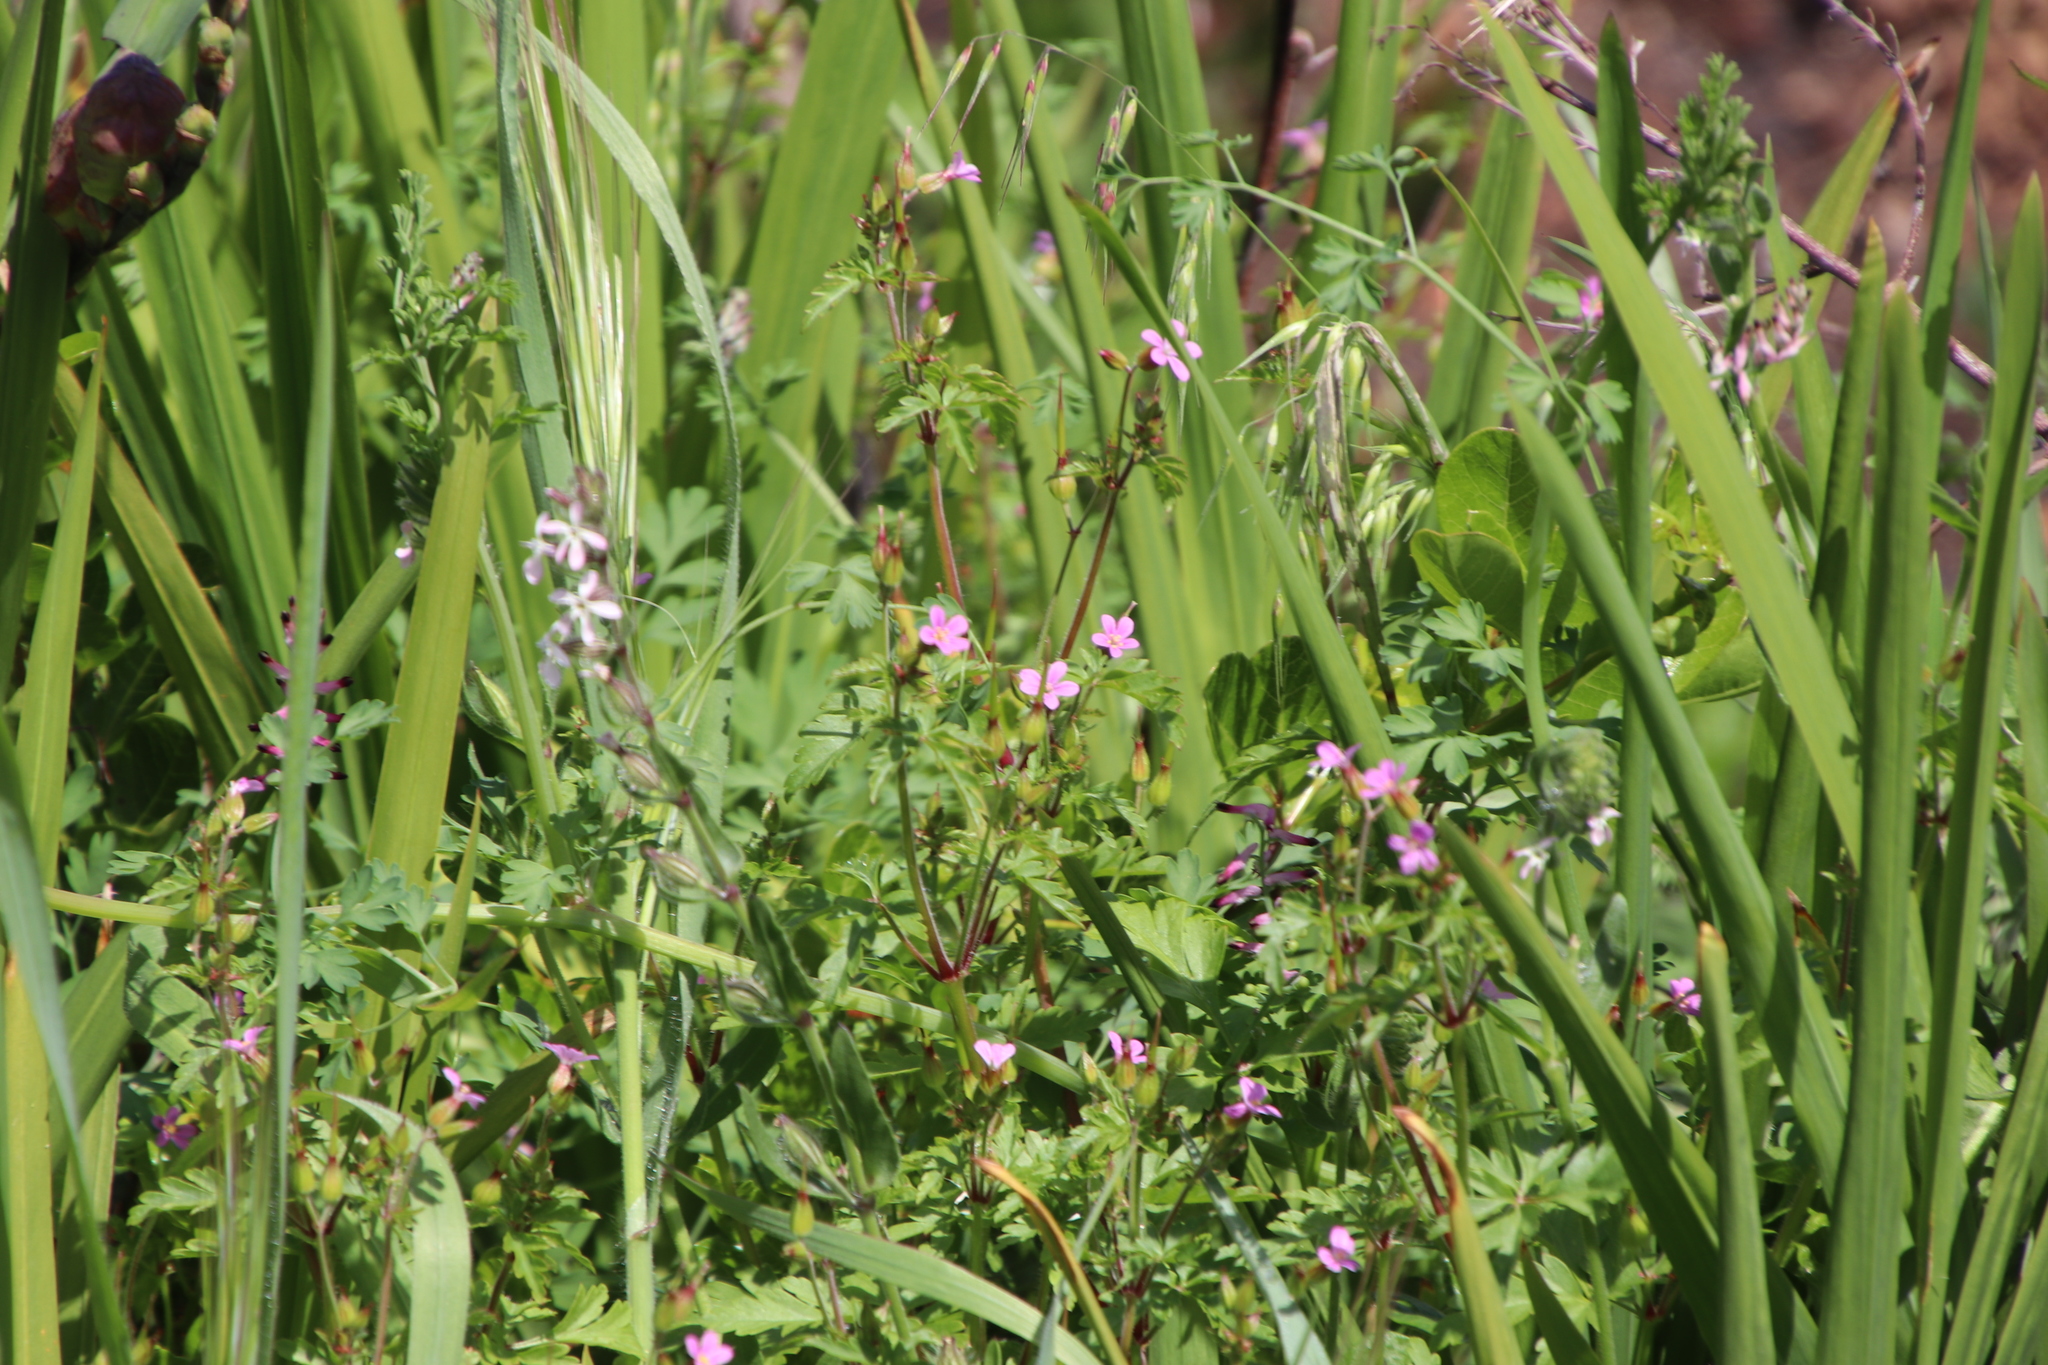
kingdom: Plantae
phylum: Tracheophyta
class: Magnoliopsida
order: Geraniales
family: Geraniaceae
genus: Geranium
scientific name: Geranium purpureum
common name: Little-robin
